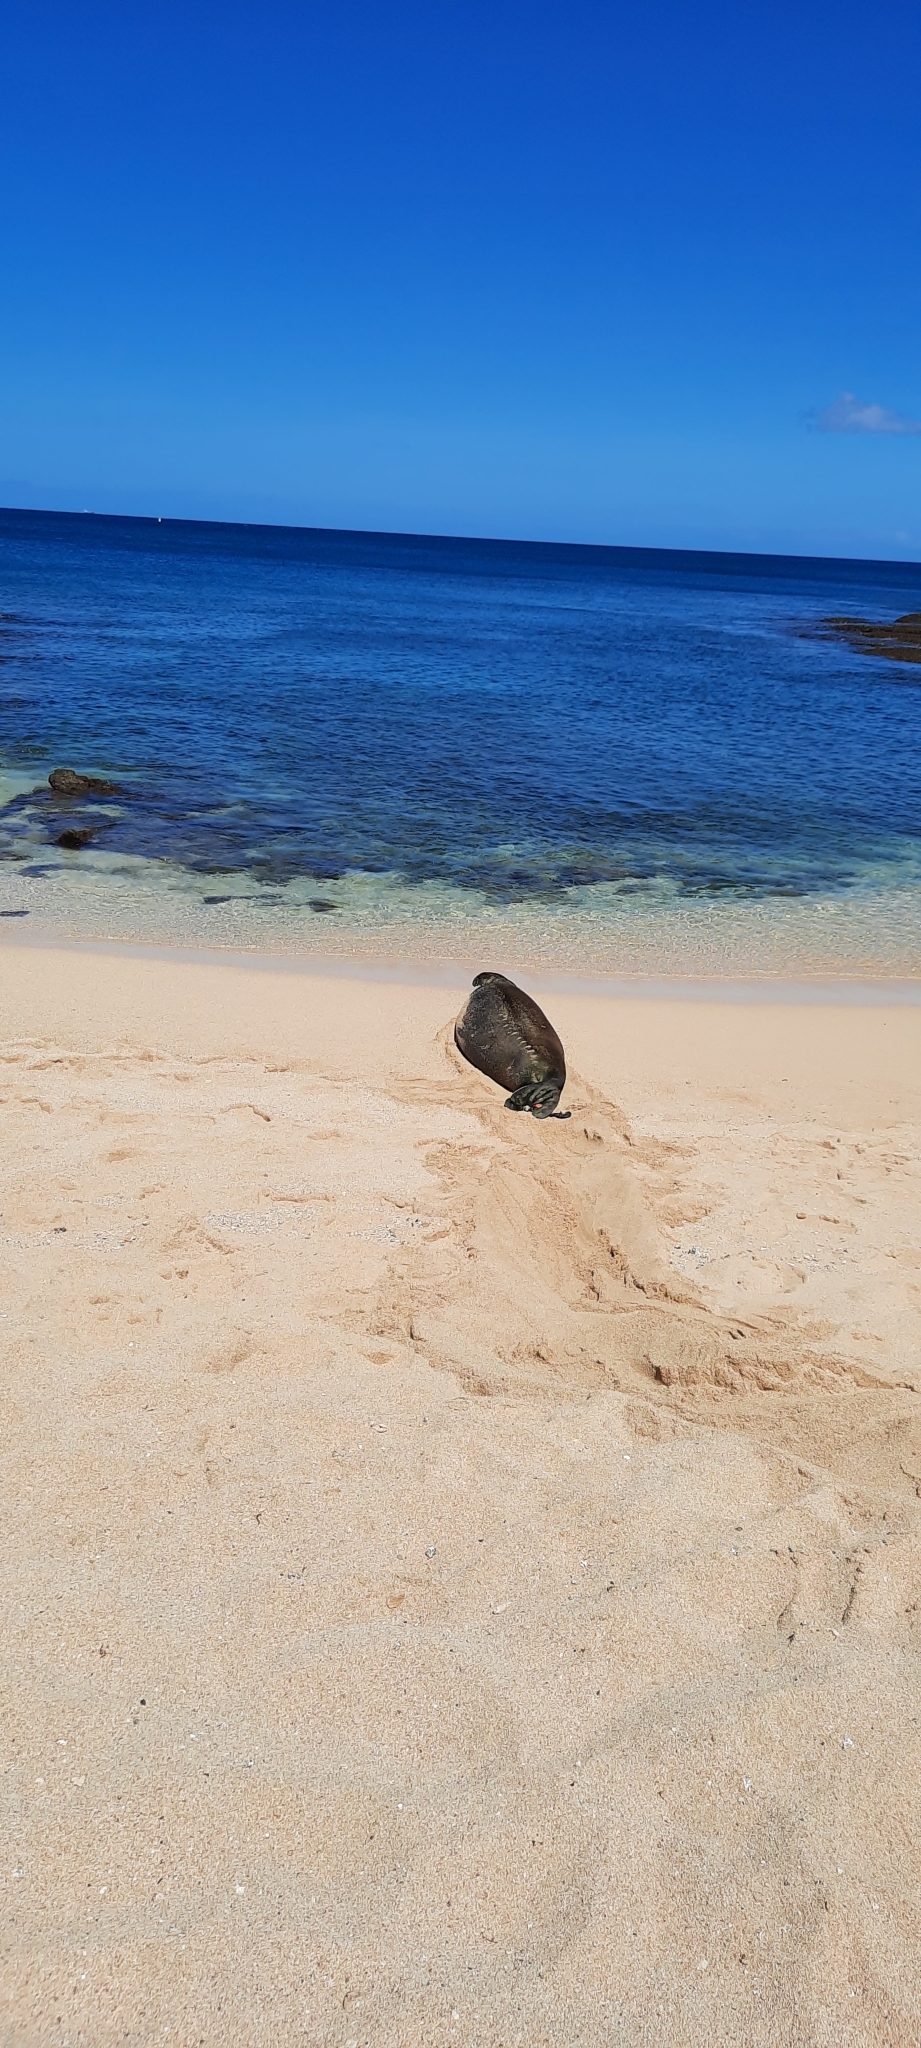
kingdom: Animalia
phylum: Chordata
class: Mammalia
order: Carnivora
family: Phocidae
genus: Neomonachus
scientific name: Neomonachus schauinslandi
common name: Hawaiian monk seal
